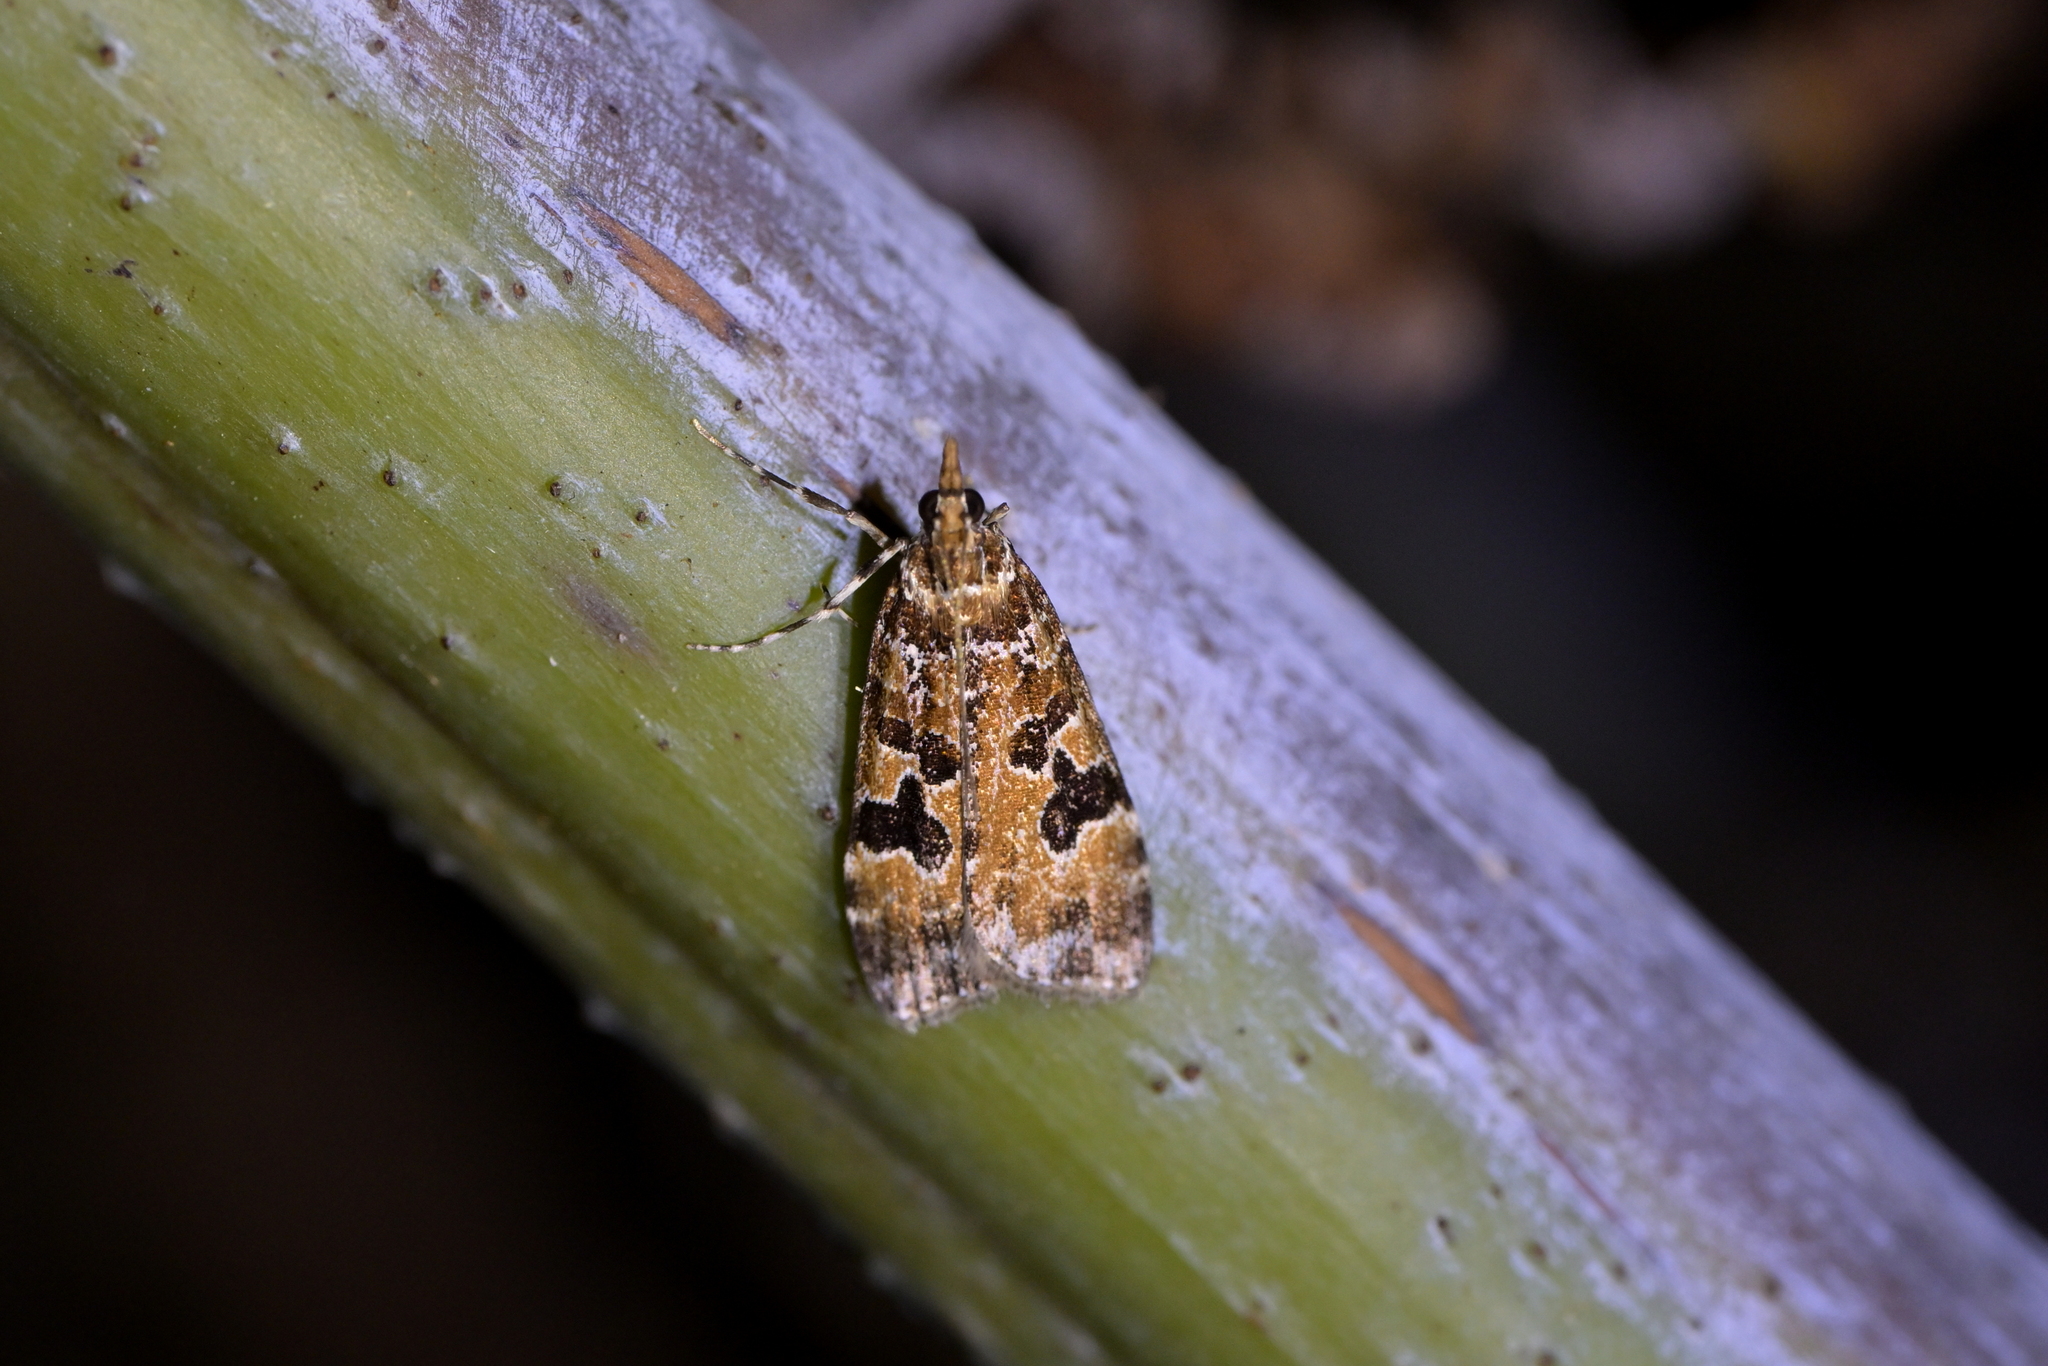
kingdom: Animalia
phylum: Arthropoda
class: Insecta
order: Lepidoptera
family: Crambidae
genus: Scoparia
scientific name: Scoparia ustimacula
